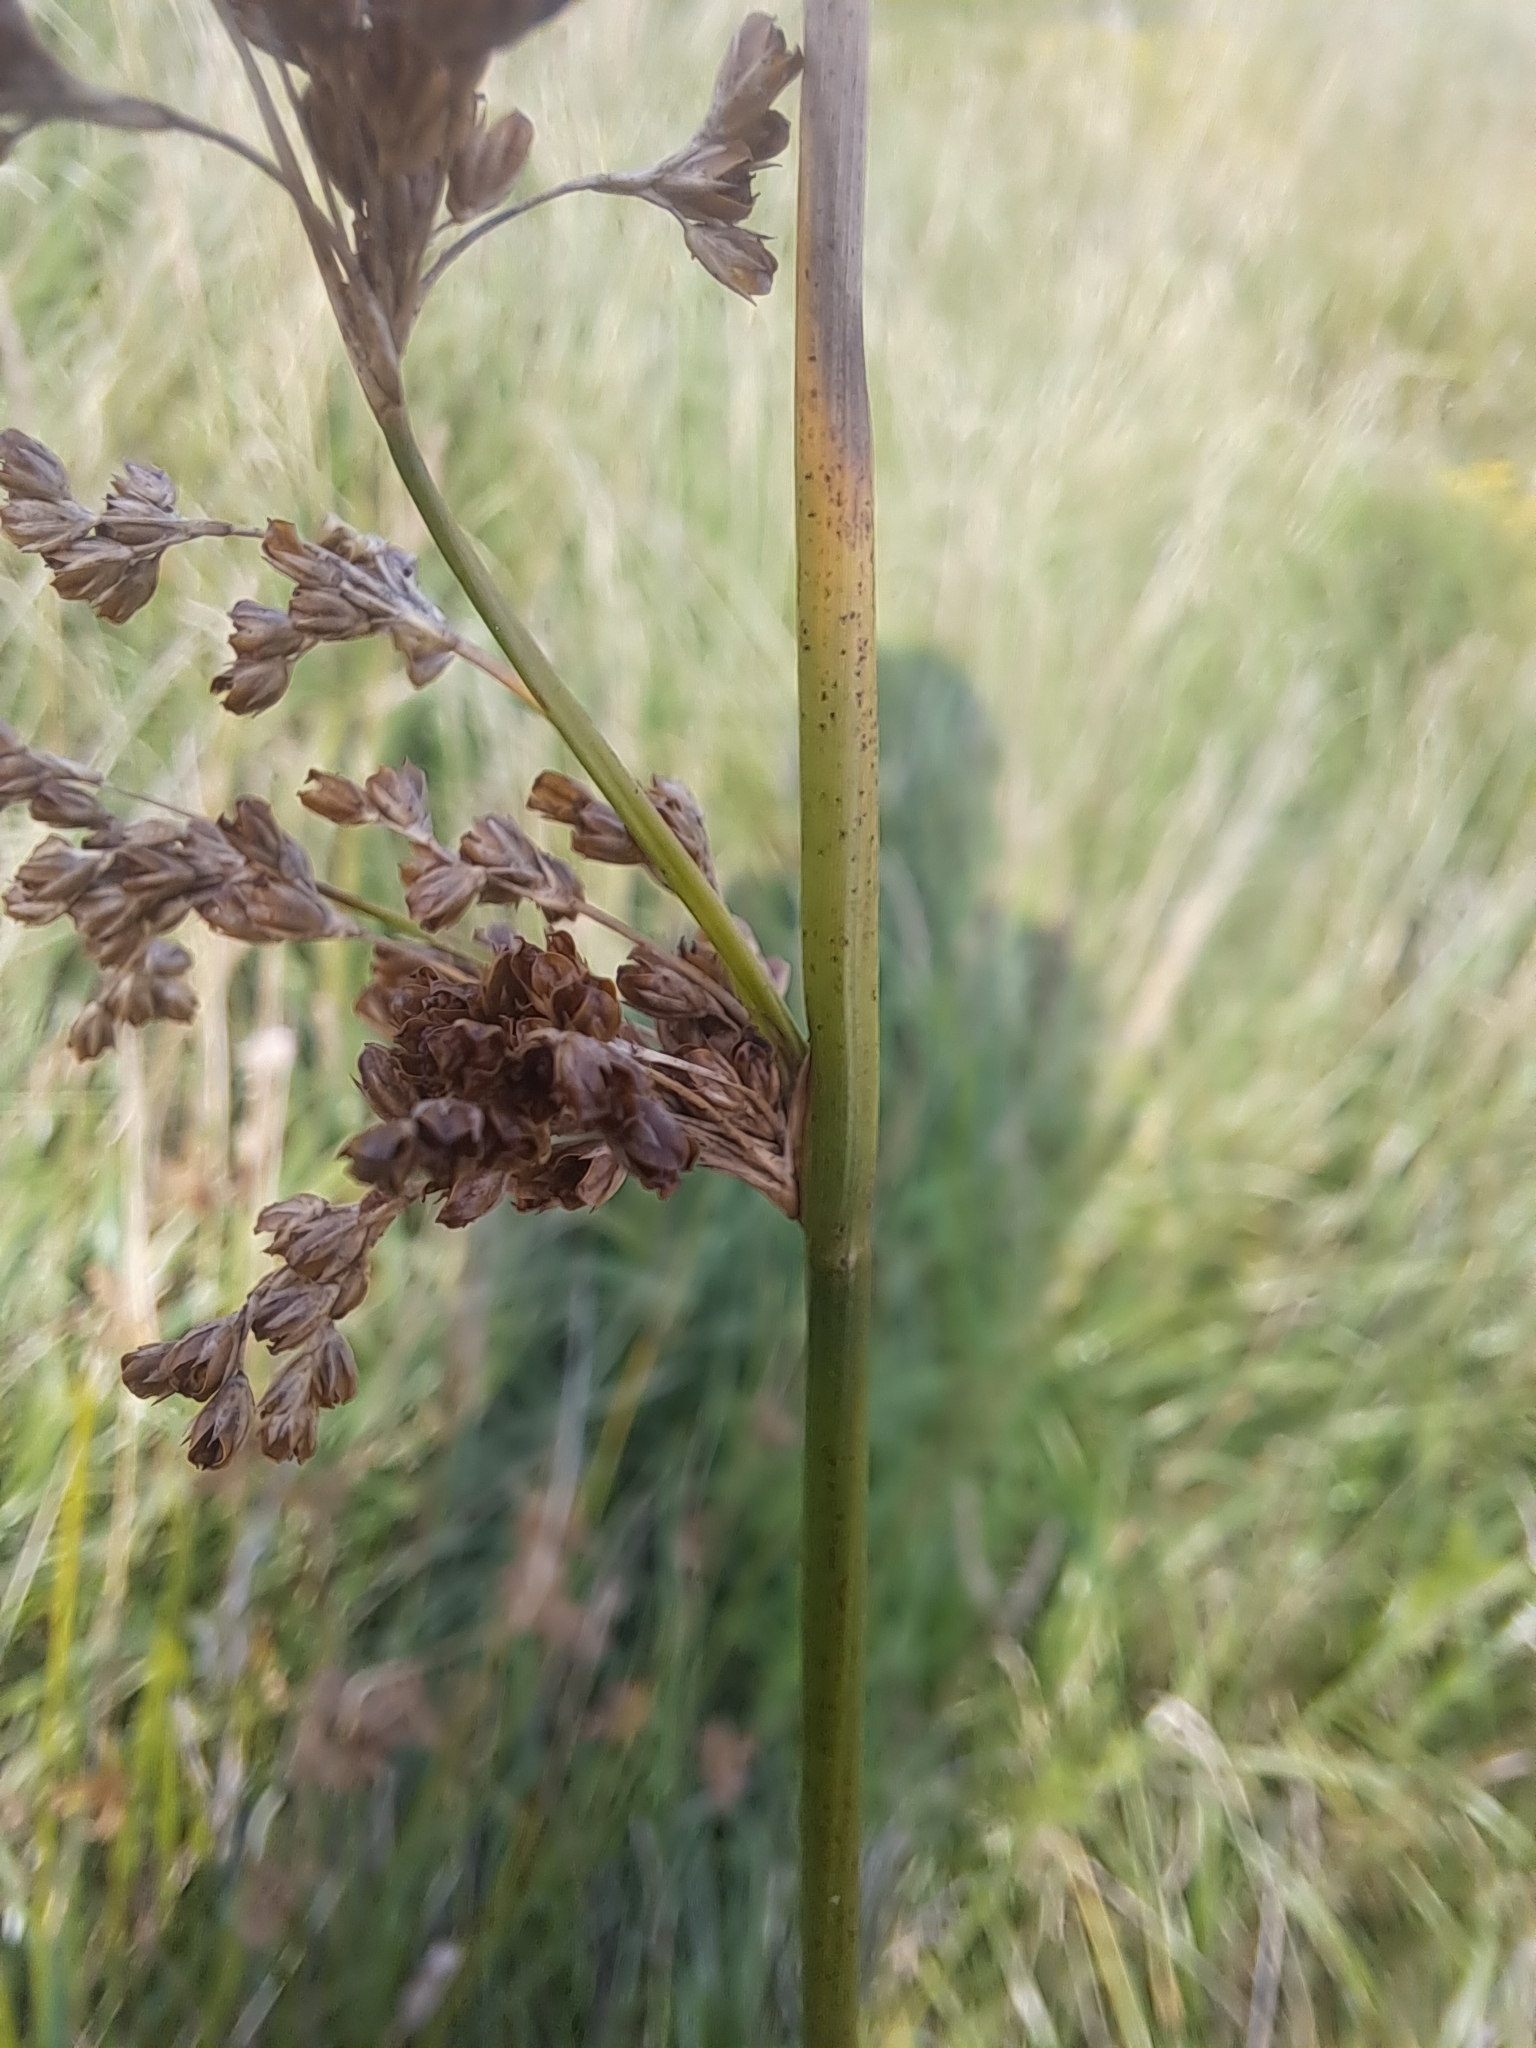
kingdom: Plantae
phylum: Tracheophyta
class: Liliopsida
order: Poales
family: Juncaceae
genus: Juncus
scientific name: Juncus effusus
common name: Soft rush
